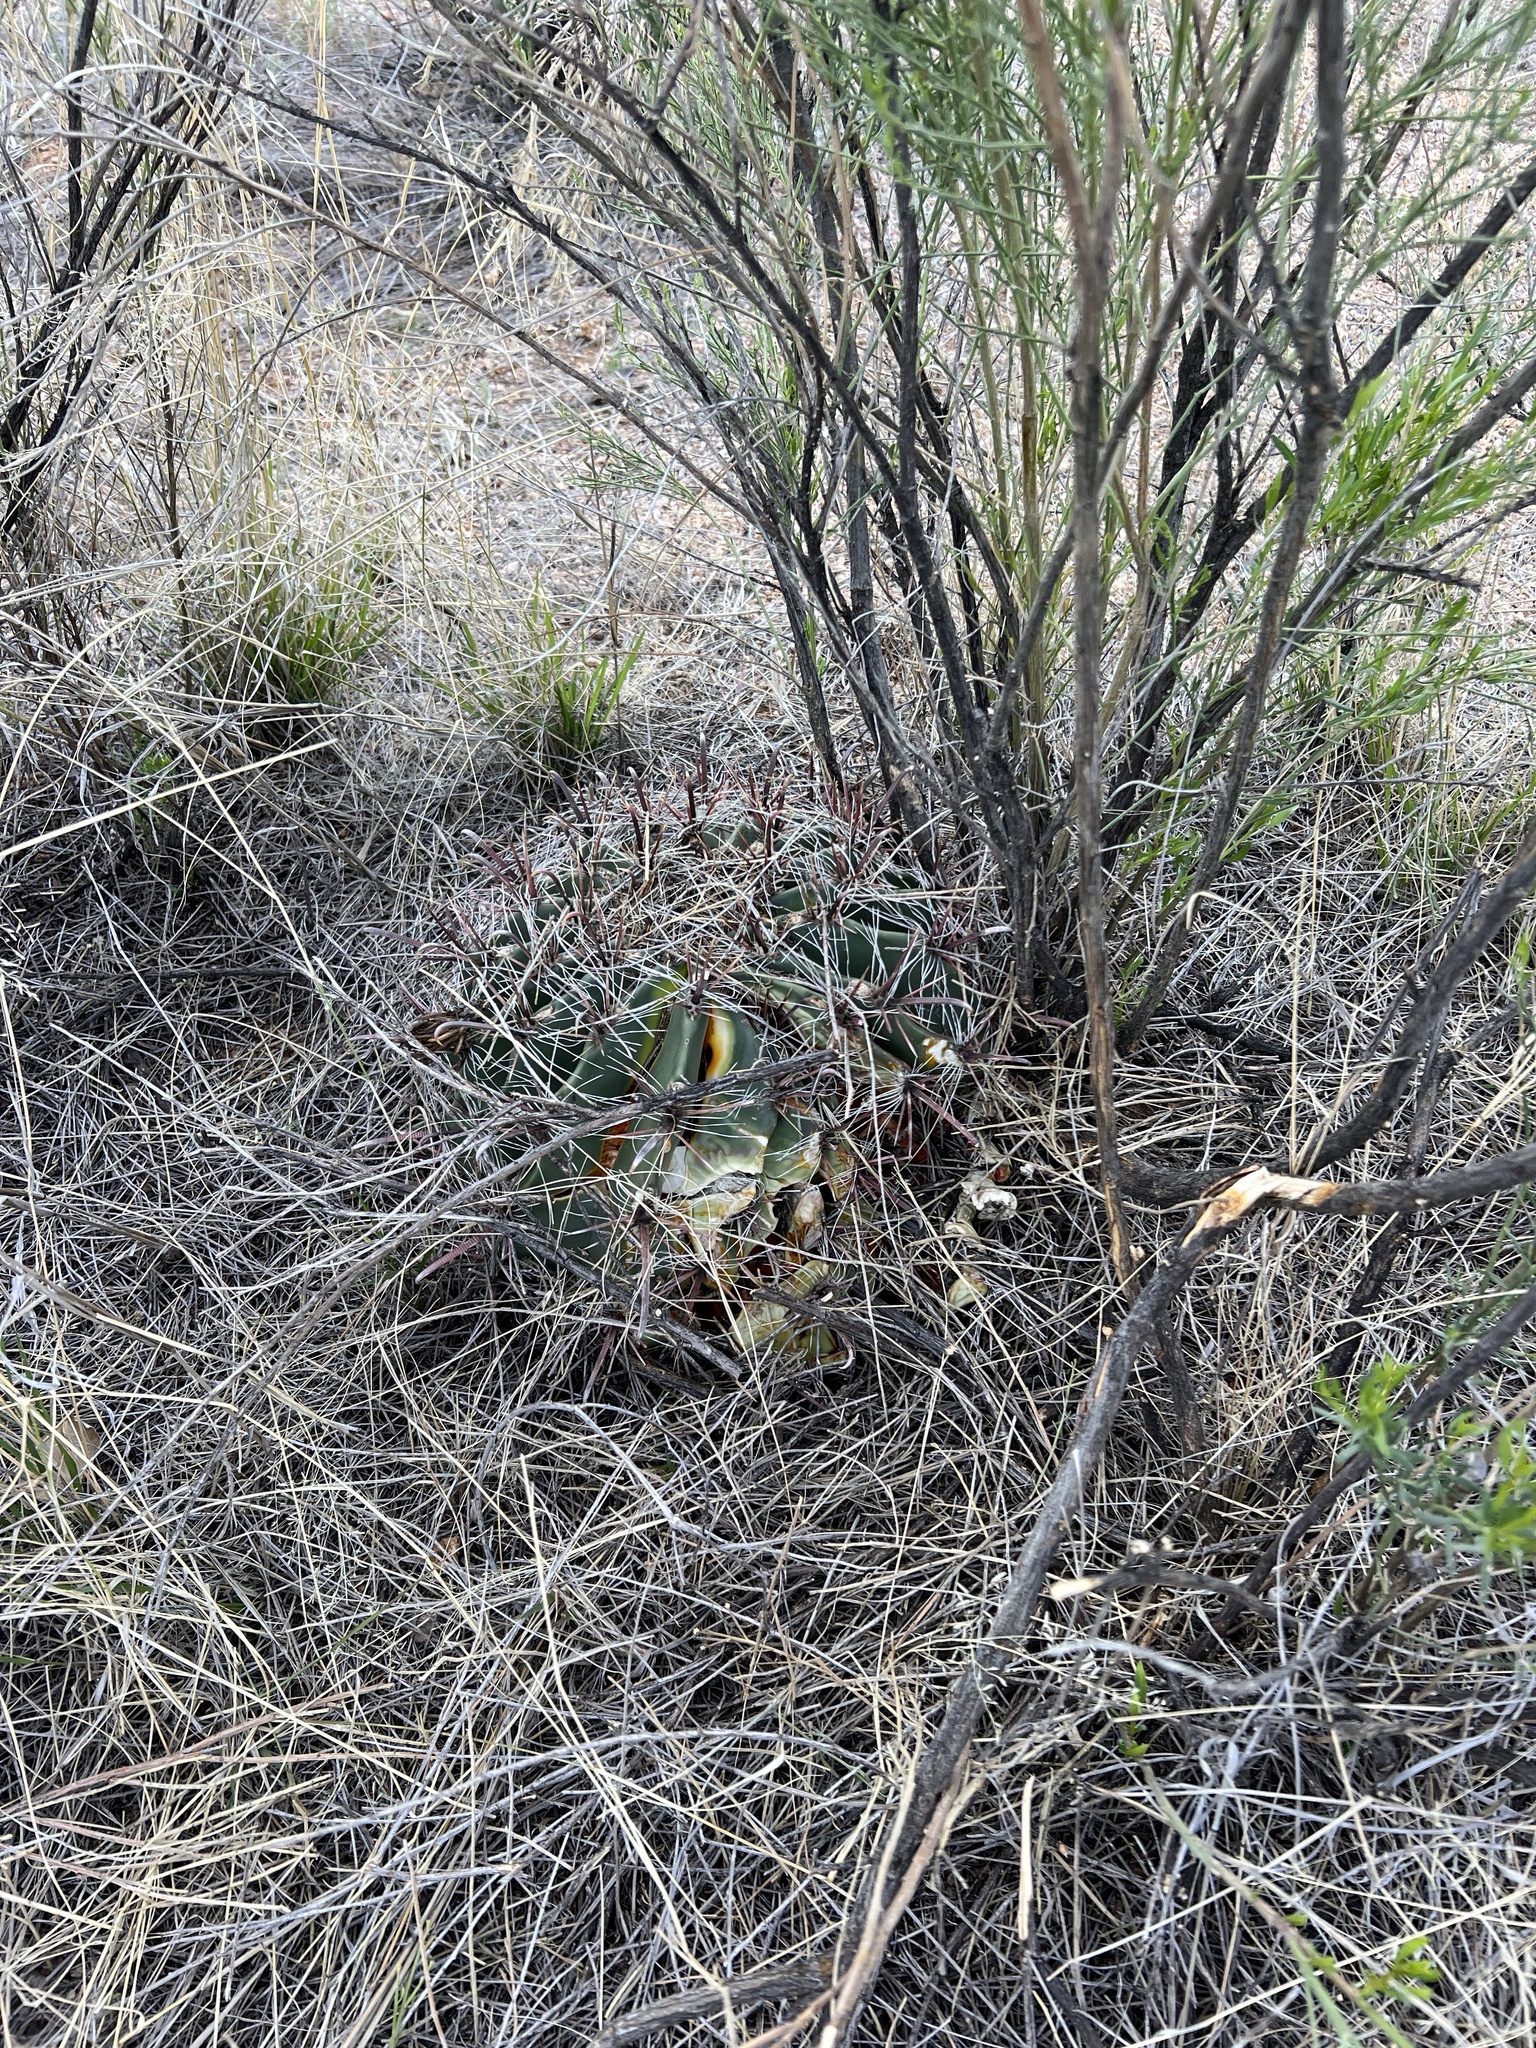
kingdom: Plantae
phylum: Tracheophyta
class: Magnoliopsida
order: Caryophyllales
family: Cactaceae
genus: Ferocactus
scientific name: Ferocactus wislizeni
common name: Candy barrel cactus
